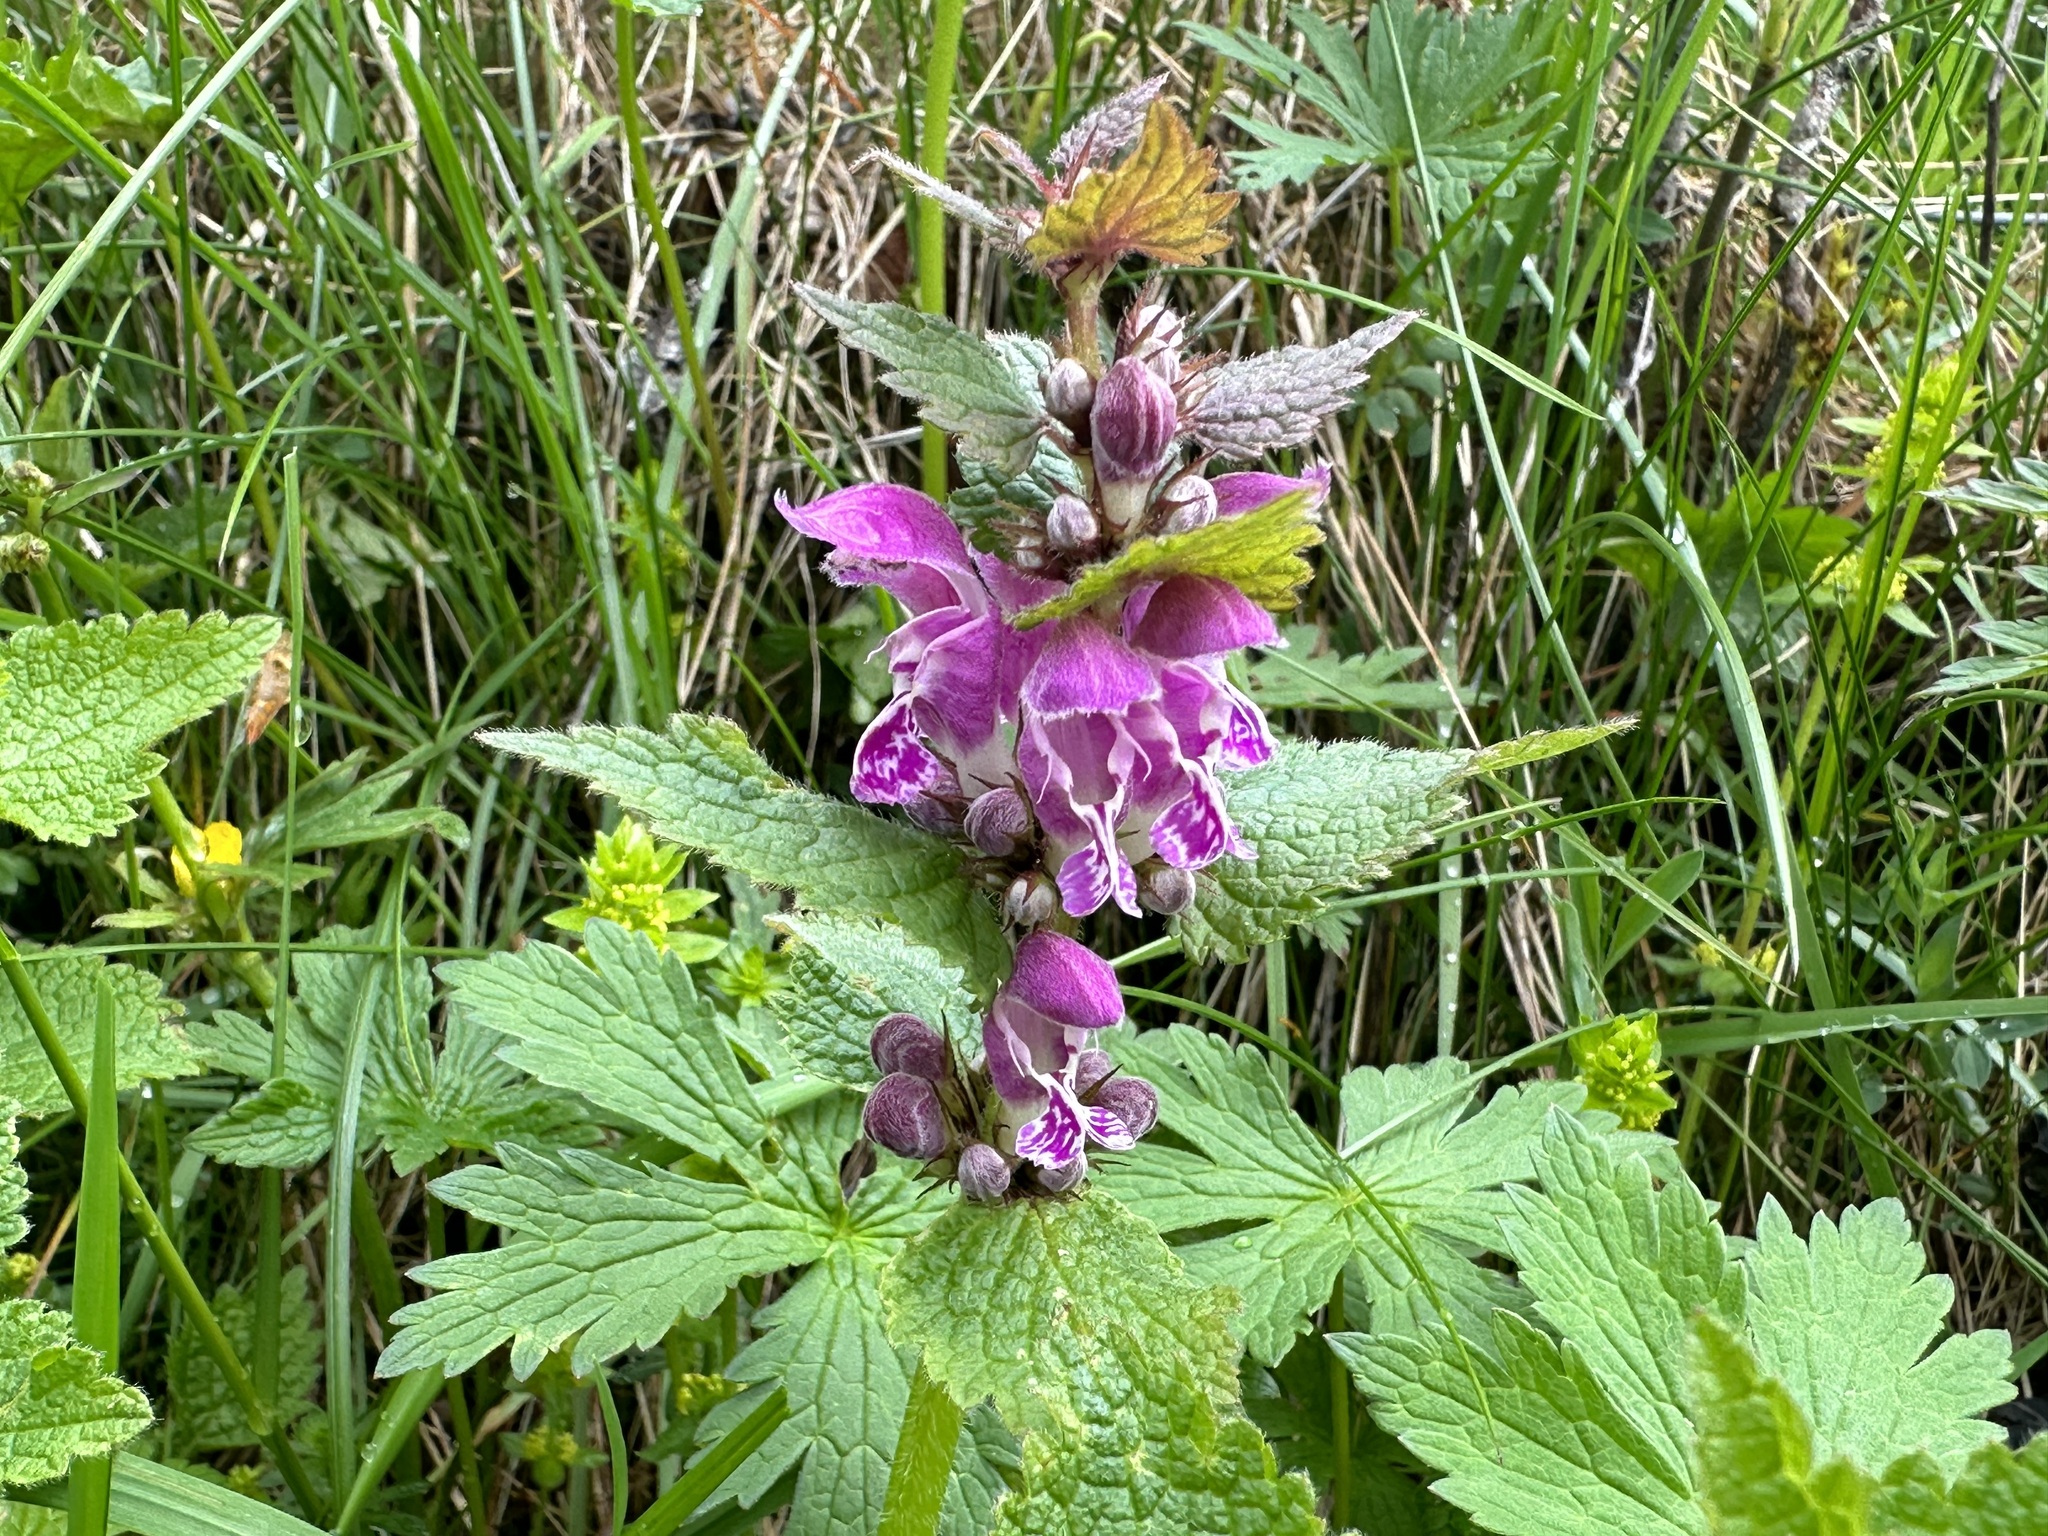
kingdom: Plantae
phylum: Tracheophyta
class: Magnoliopsida
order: Lamiales
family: Lamiaceae
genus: Lamium
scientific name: Lamium maculatum
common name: Spotted dead-nettle
